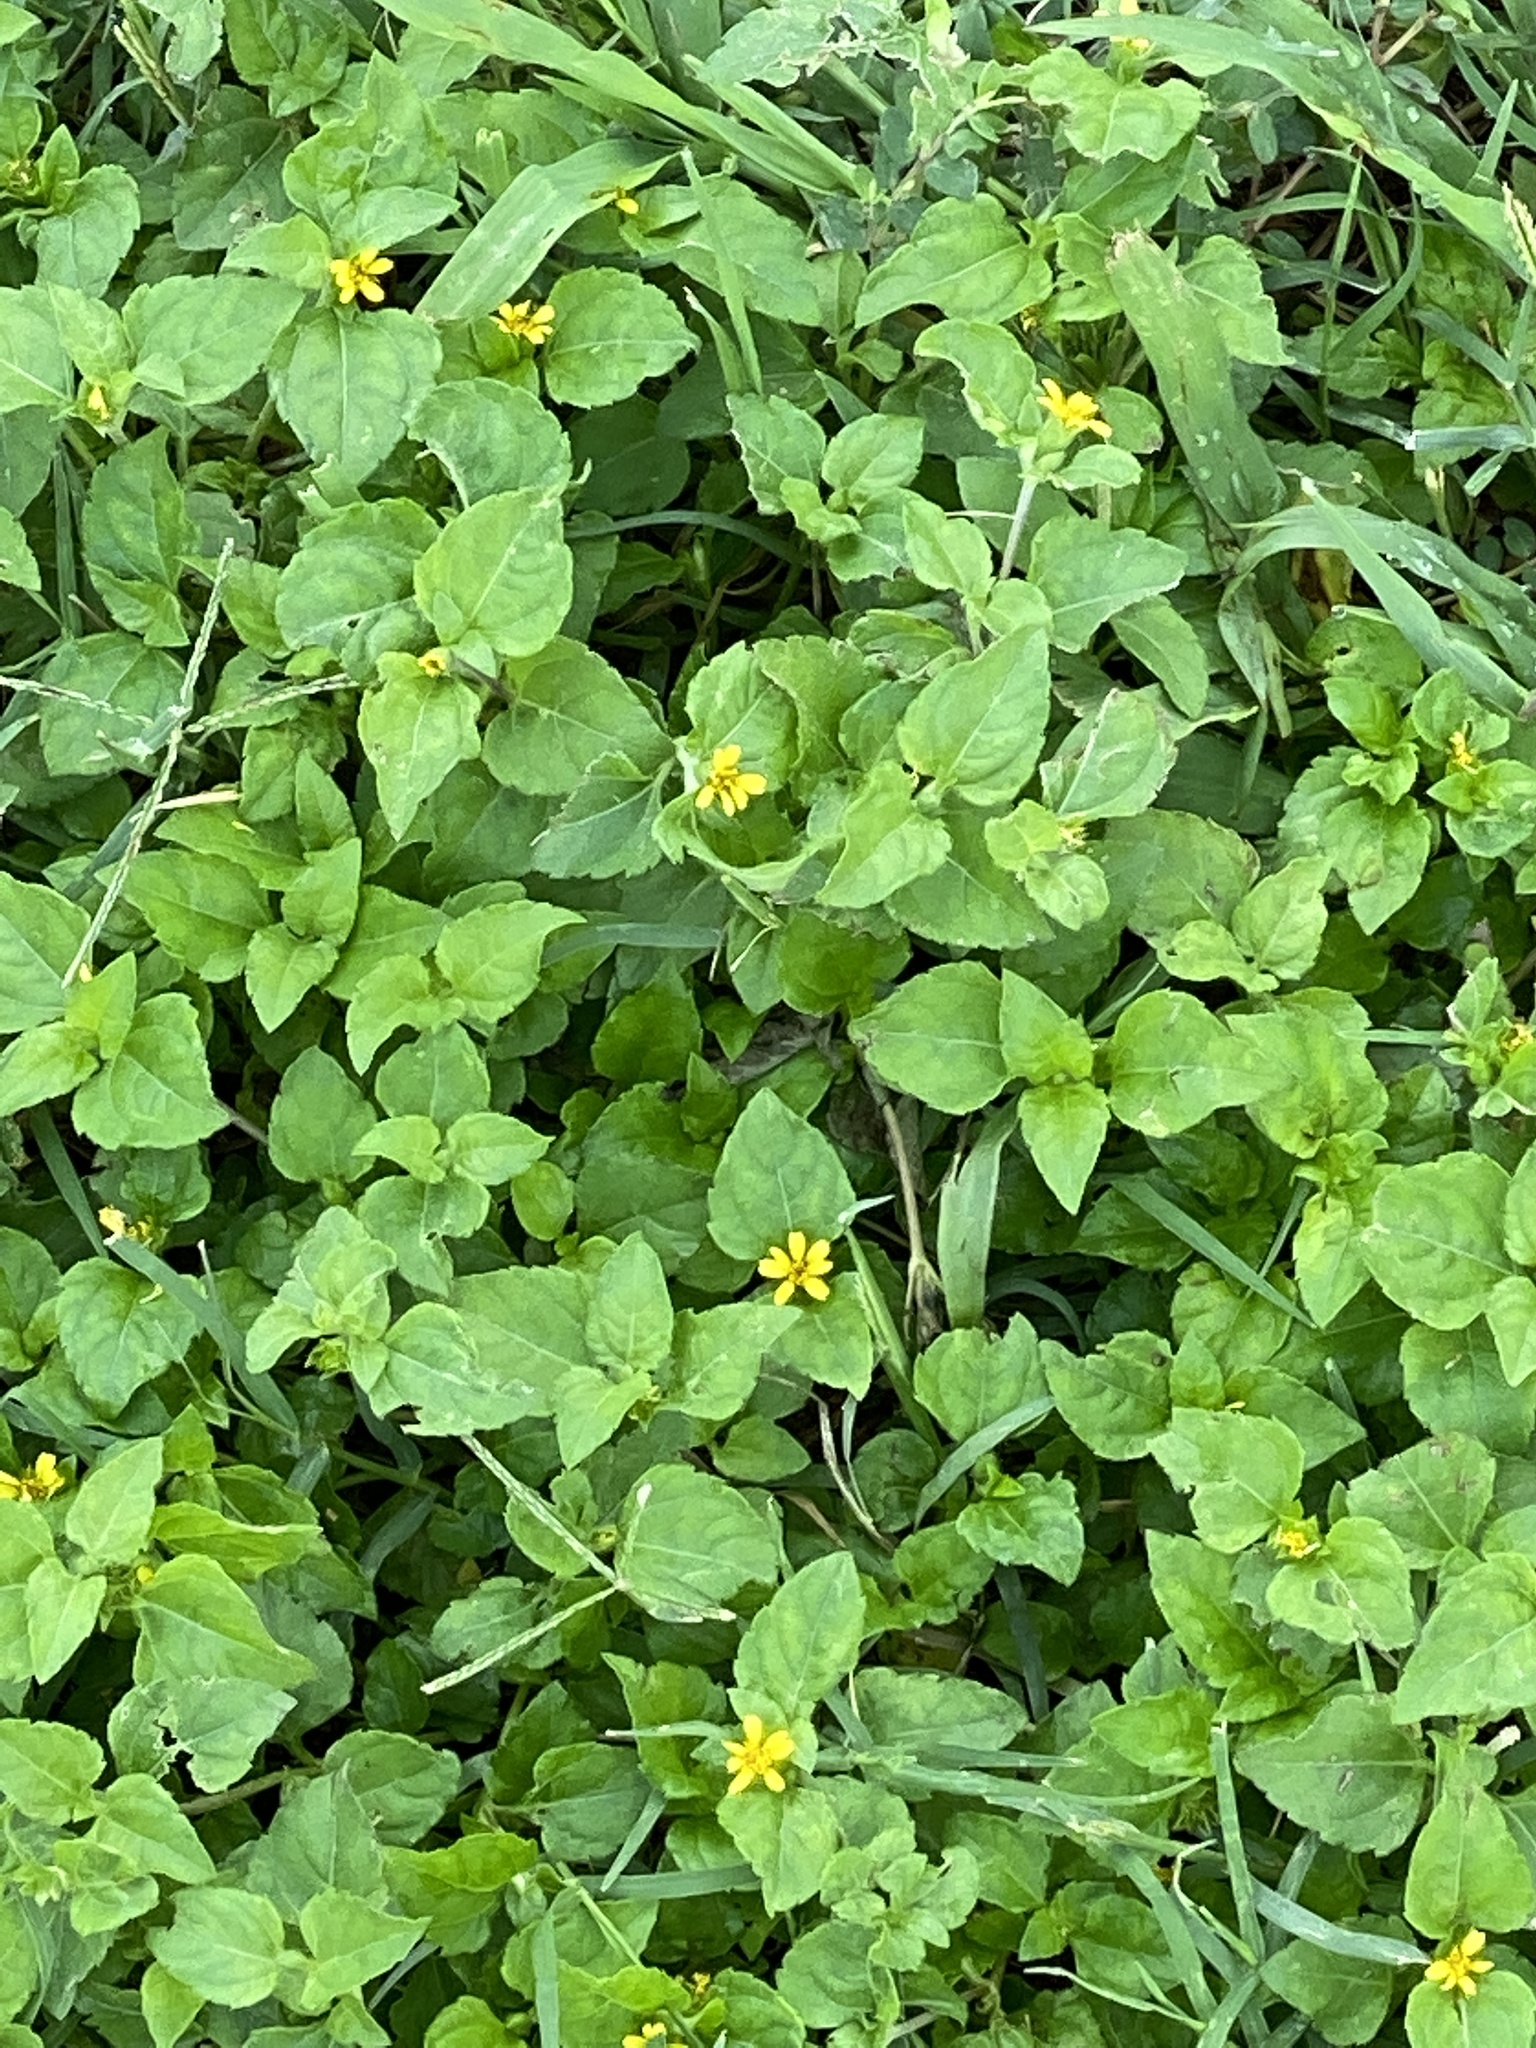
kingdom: Plantae
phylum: Tracheophyta
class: Magnoliopsida
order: Asterales
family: Asteraceae
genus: Calyptocarpus
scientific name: Calyptocarpus vialis
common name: Straggler daisy
